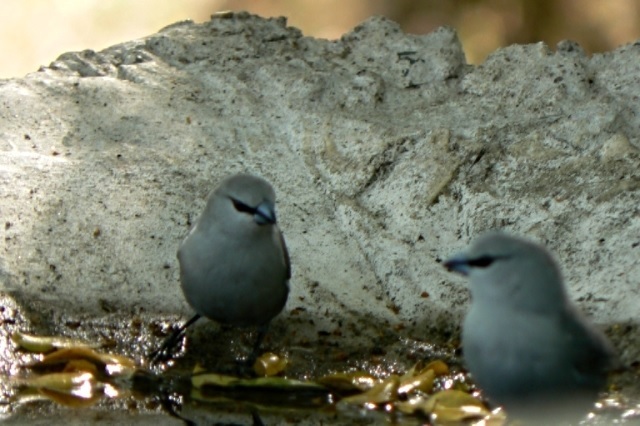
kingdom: Animalia
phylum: Chordata
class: Aves
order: Passeriformes
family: Estrildidae
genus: Estrilda
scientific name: Estrilda perreini
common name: Grey waxbill
